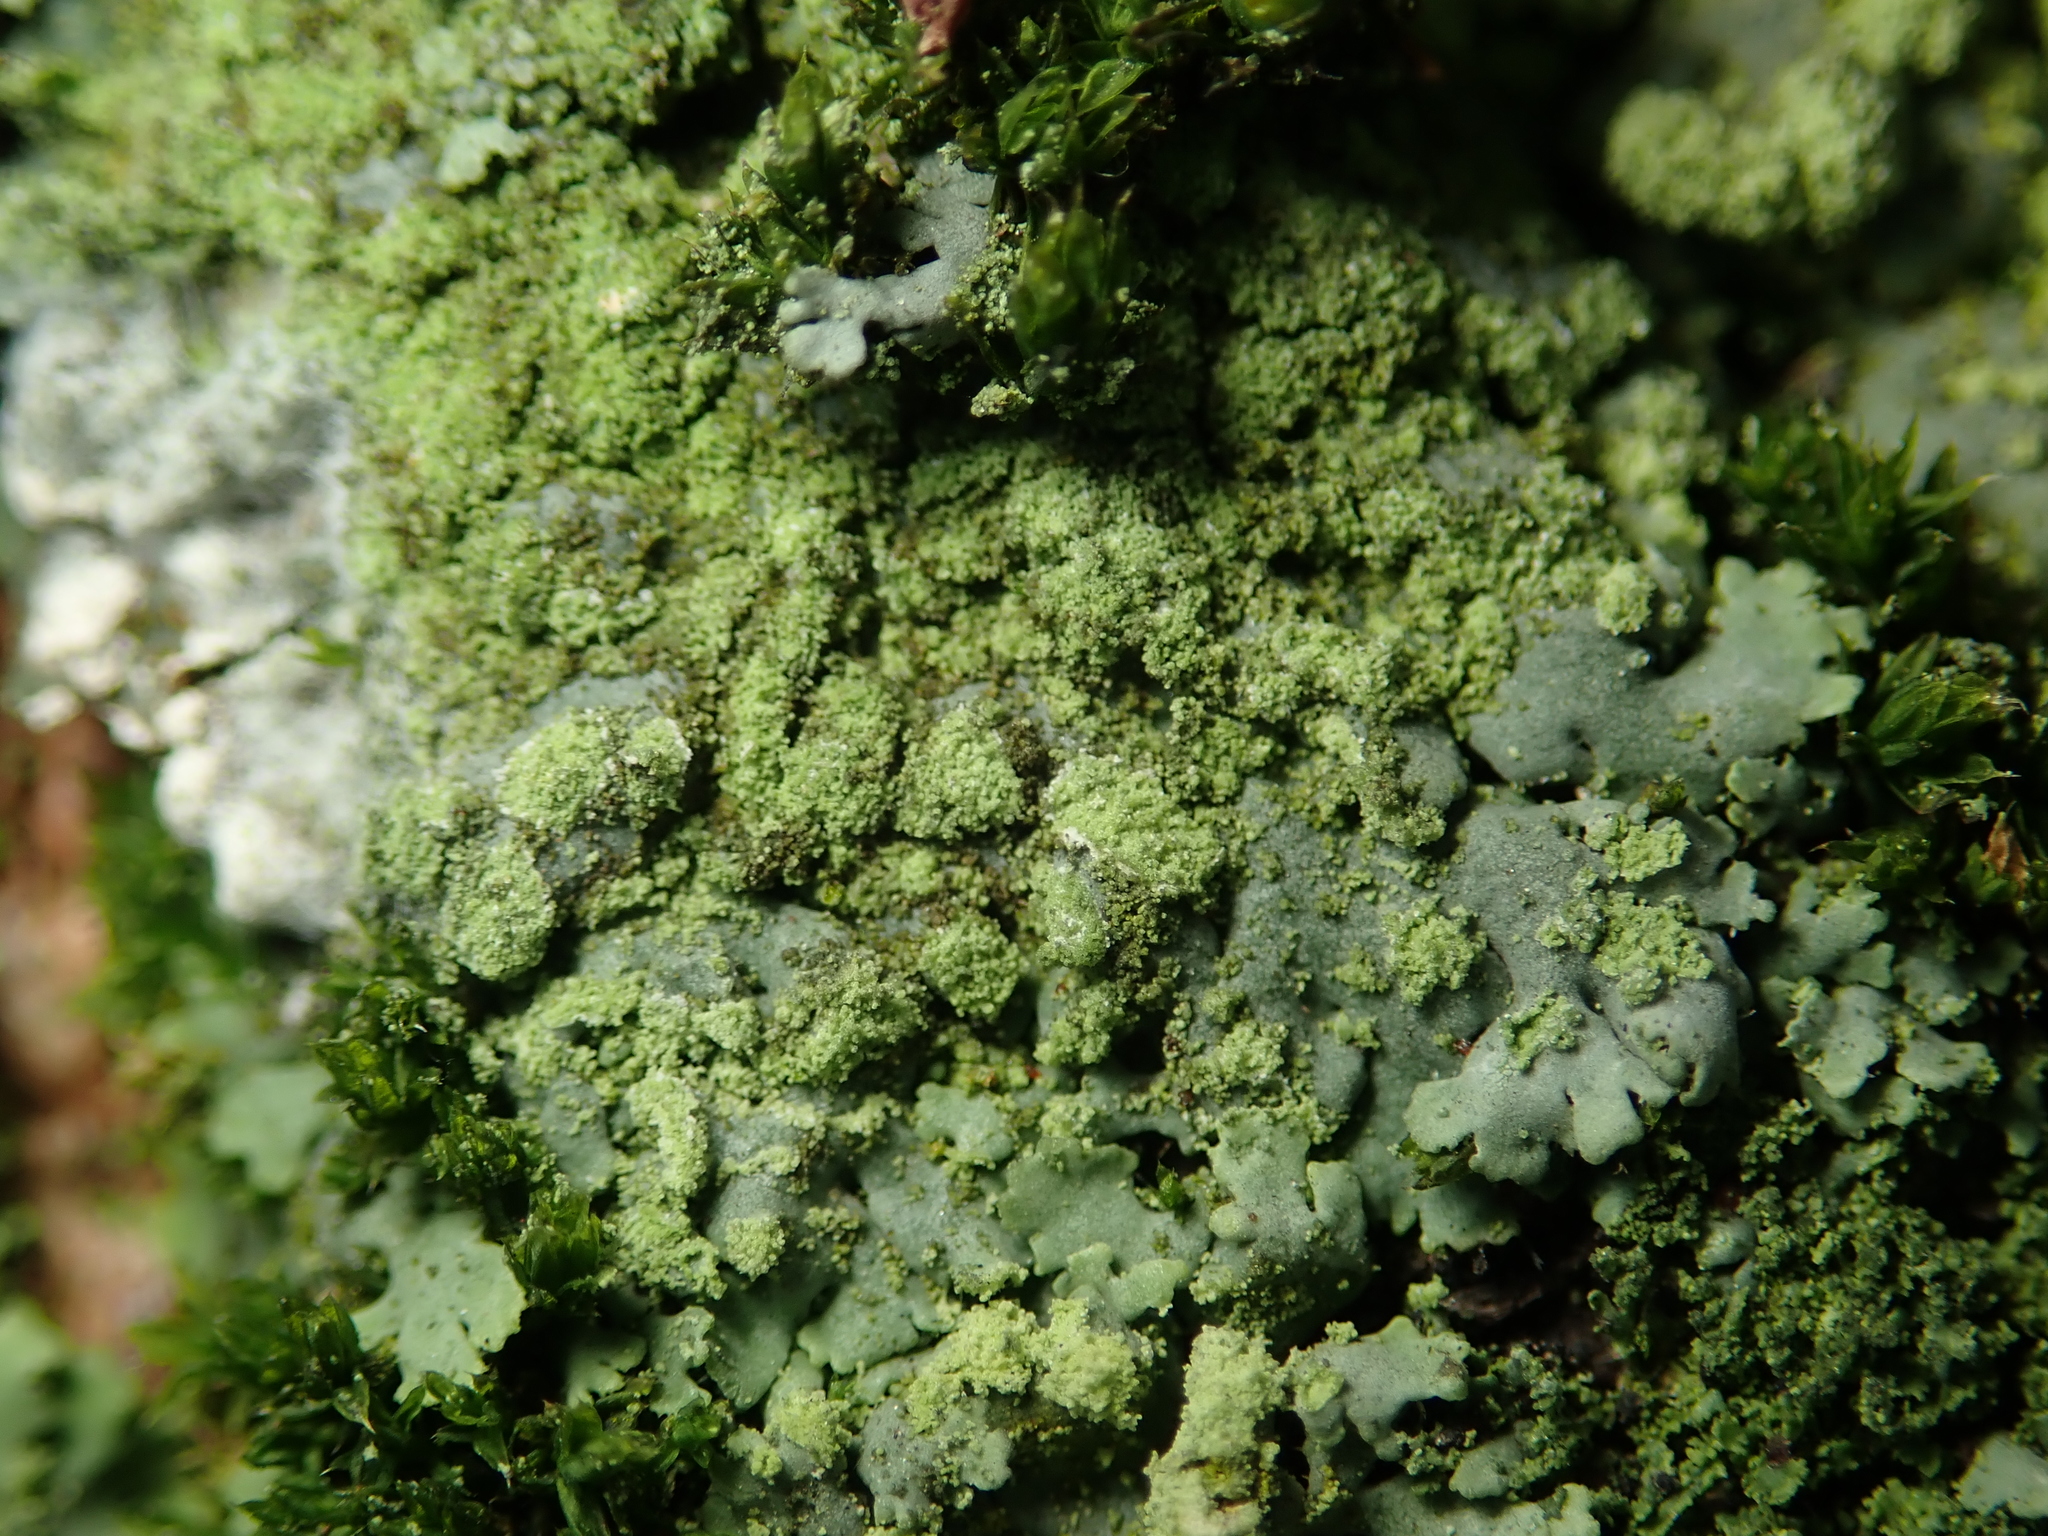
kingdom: Fungi
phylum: Ascomycota
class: Lecanoromycetes
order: Caliciales
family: Physciaceae
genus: Phaeophyscia
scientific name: Phaeophyscia orbicularis
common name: Mealy shadow lichen
